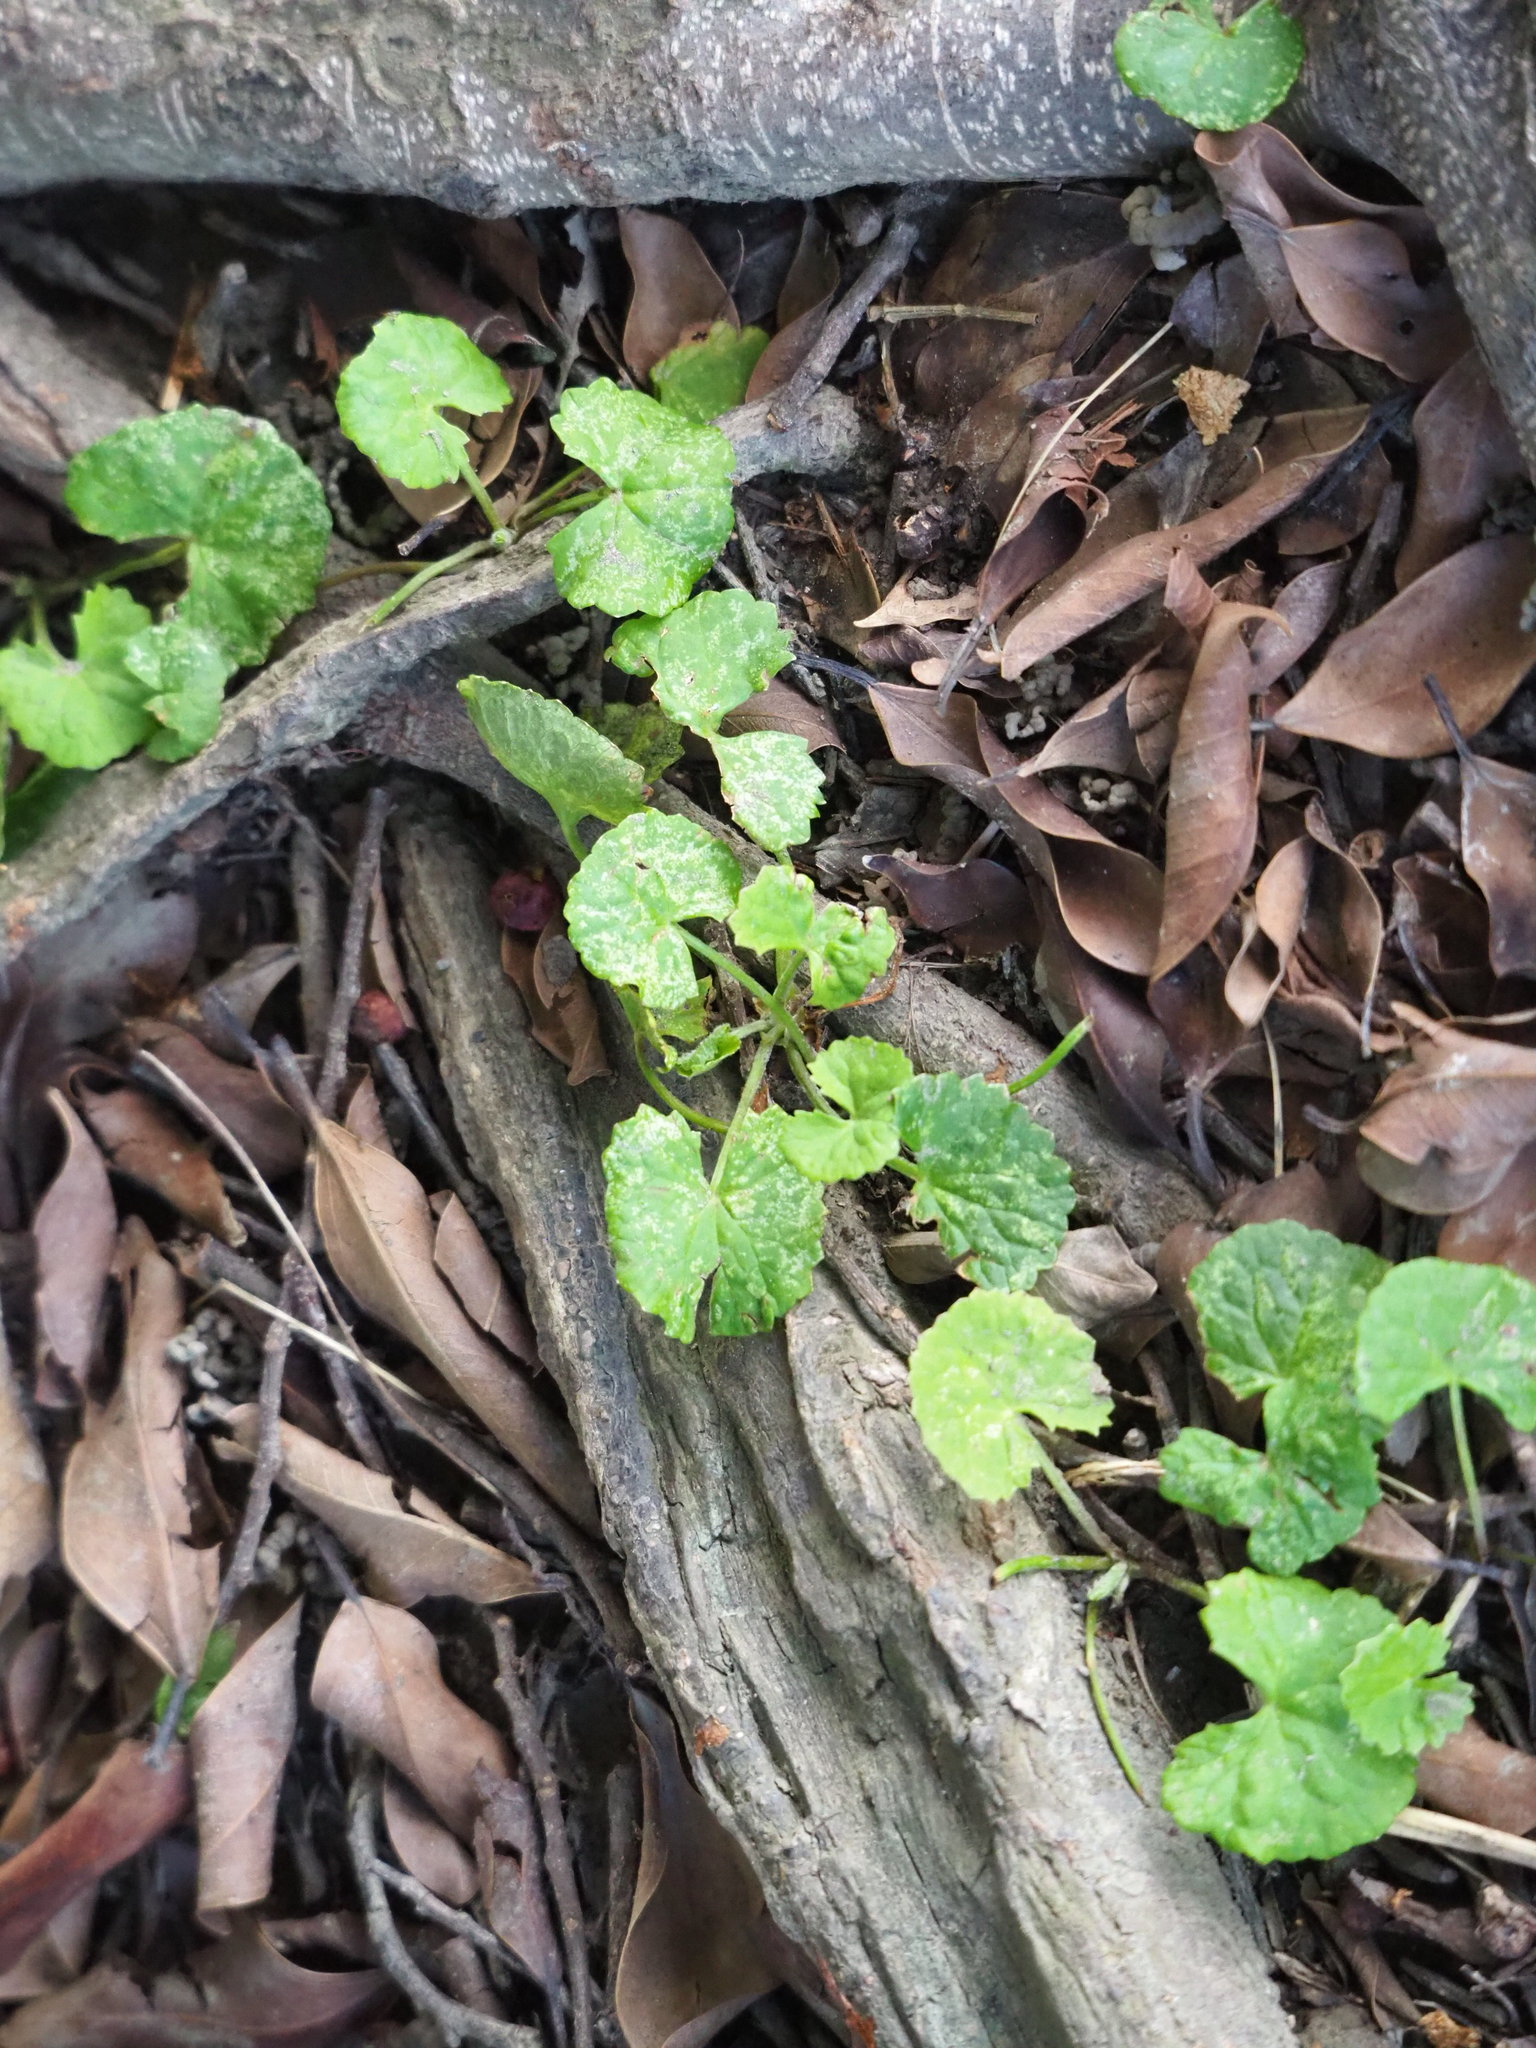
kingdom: Plantae
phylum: Tracheophyta
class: Magnoliopsida
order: Apiales
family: Apiaceae
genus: Centella
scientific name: Centella asiatica
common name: Spadeleaf
